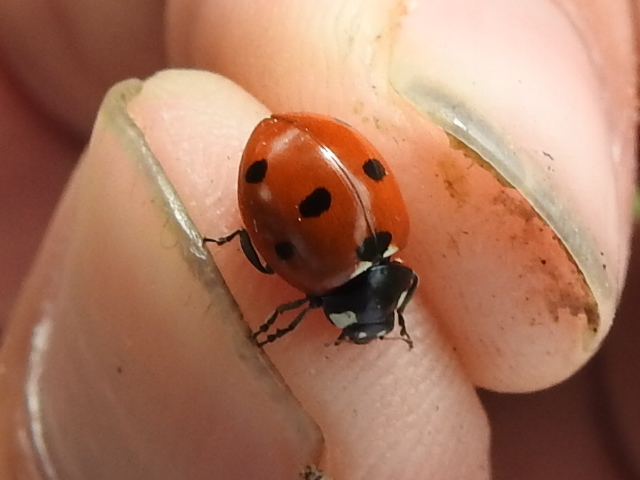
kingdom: Animalia
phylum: Arthropoda
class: Insecta
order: Coleoptera
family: Coccinellidae
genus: Coccinella
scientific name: Coccinella septempunctata
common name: Sevenspotted lady beetle
